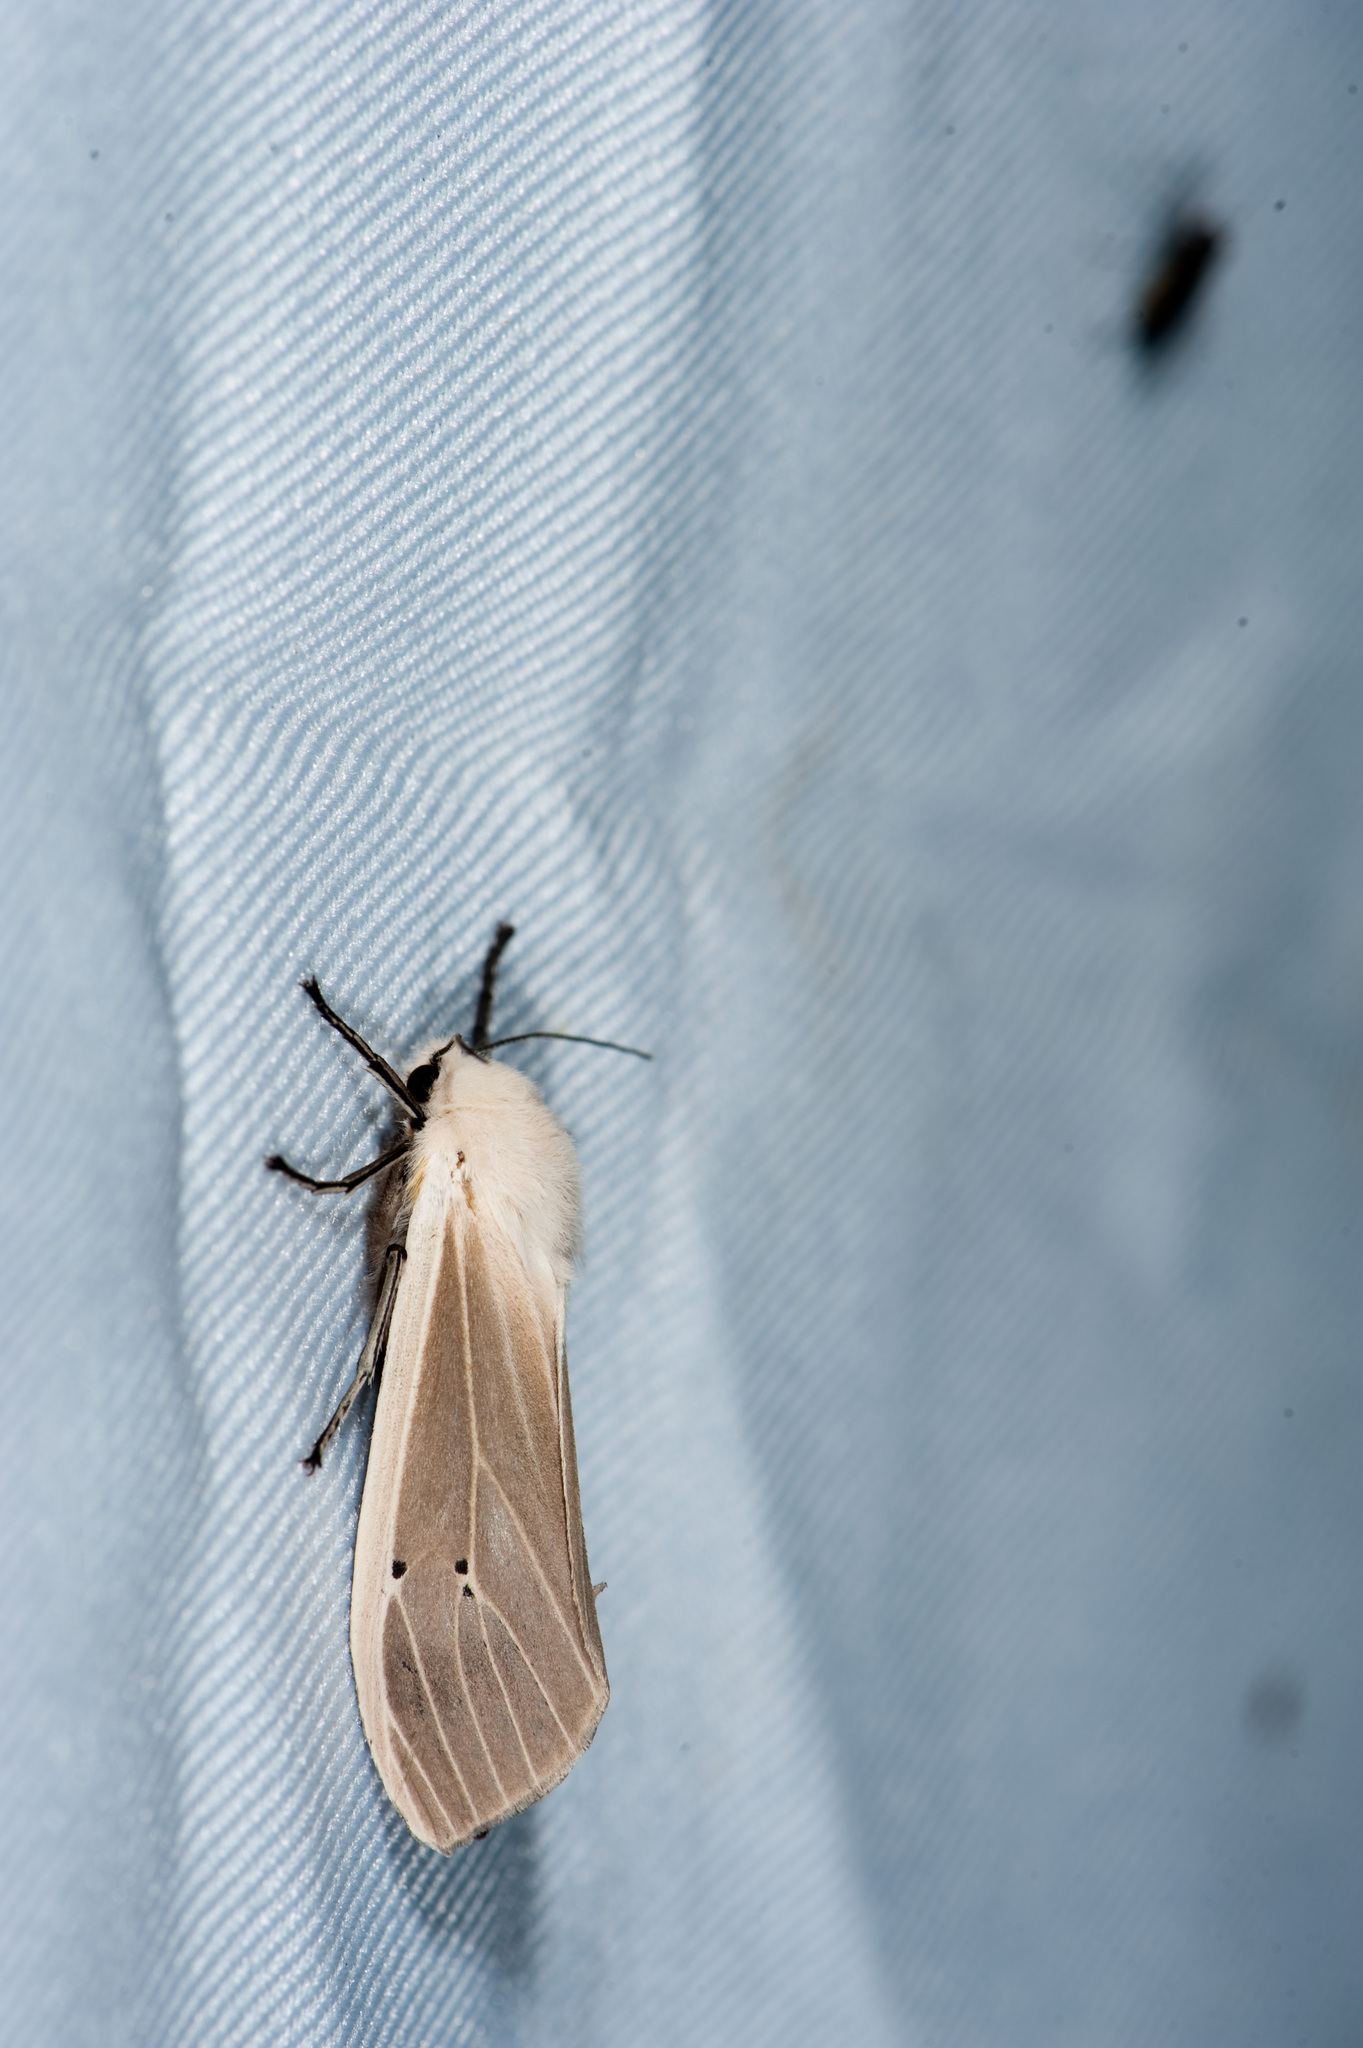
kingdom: Animalia
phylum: Arthropoda
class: Insecta
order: Lepidoptera
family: Erebidae
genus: Creatonotos
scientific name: Creatonotos transiens
